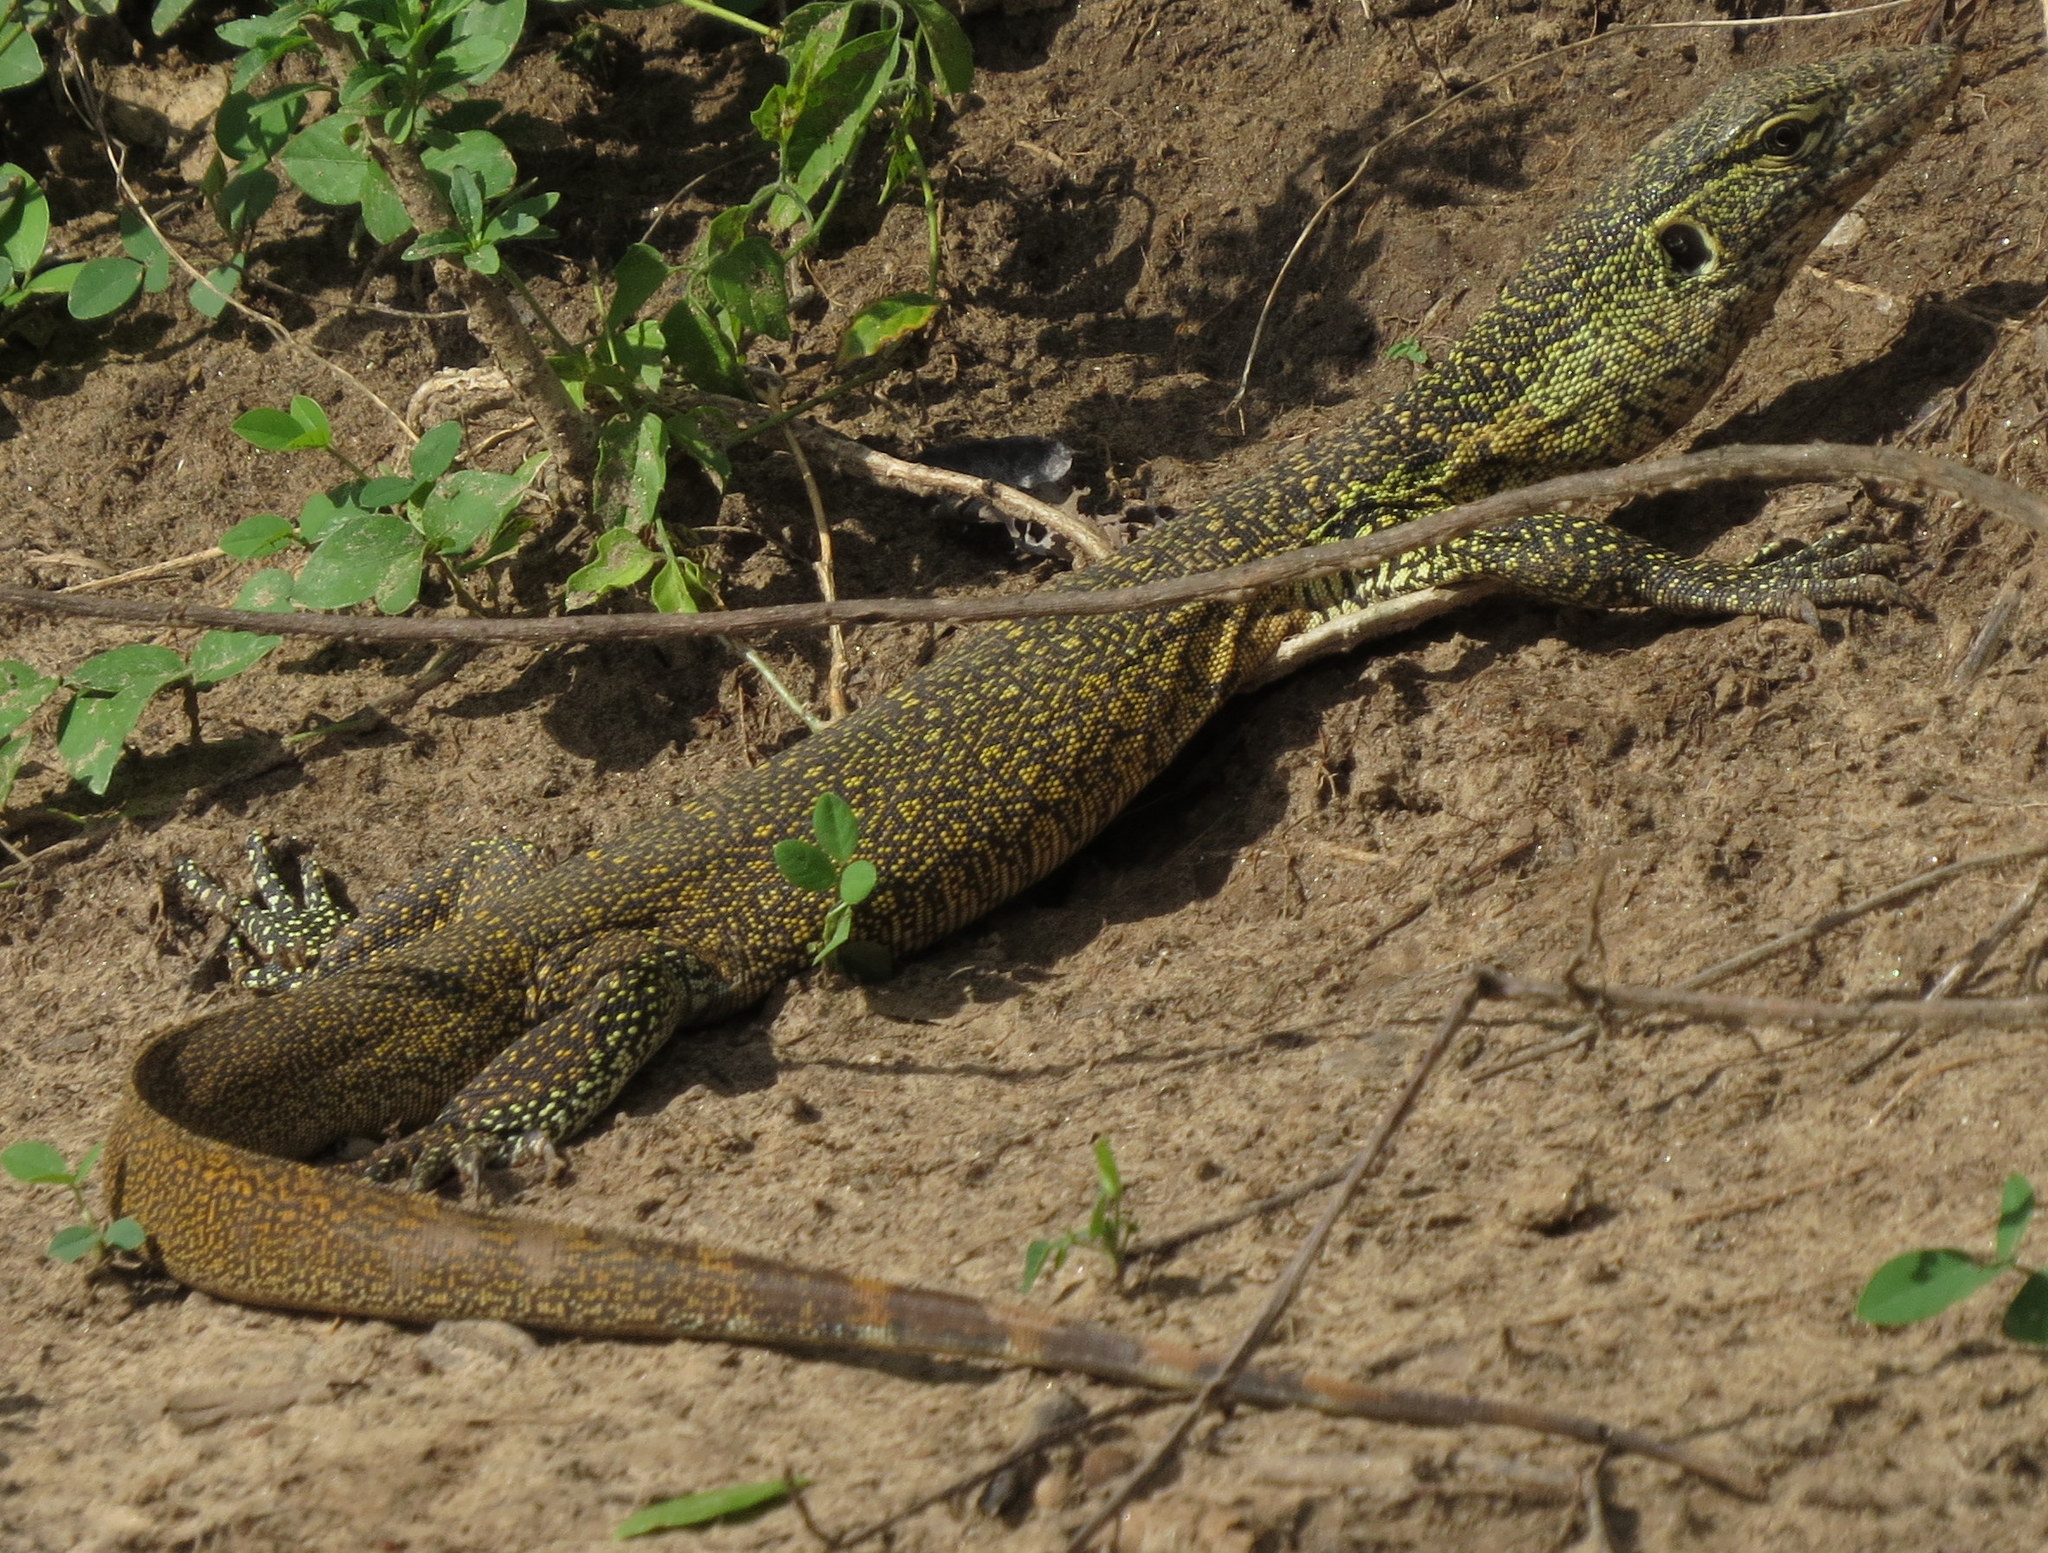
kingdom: Animalia
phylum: Chordata
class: Squamata
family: Varanidae
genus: Varanus
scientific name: Varanus niloticus
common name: Nile monitor
